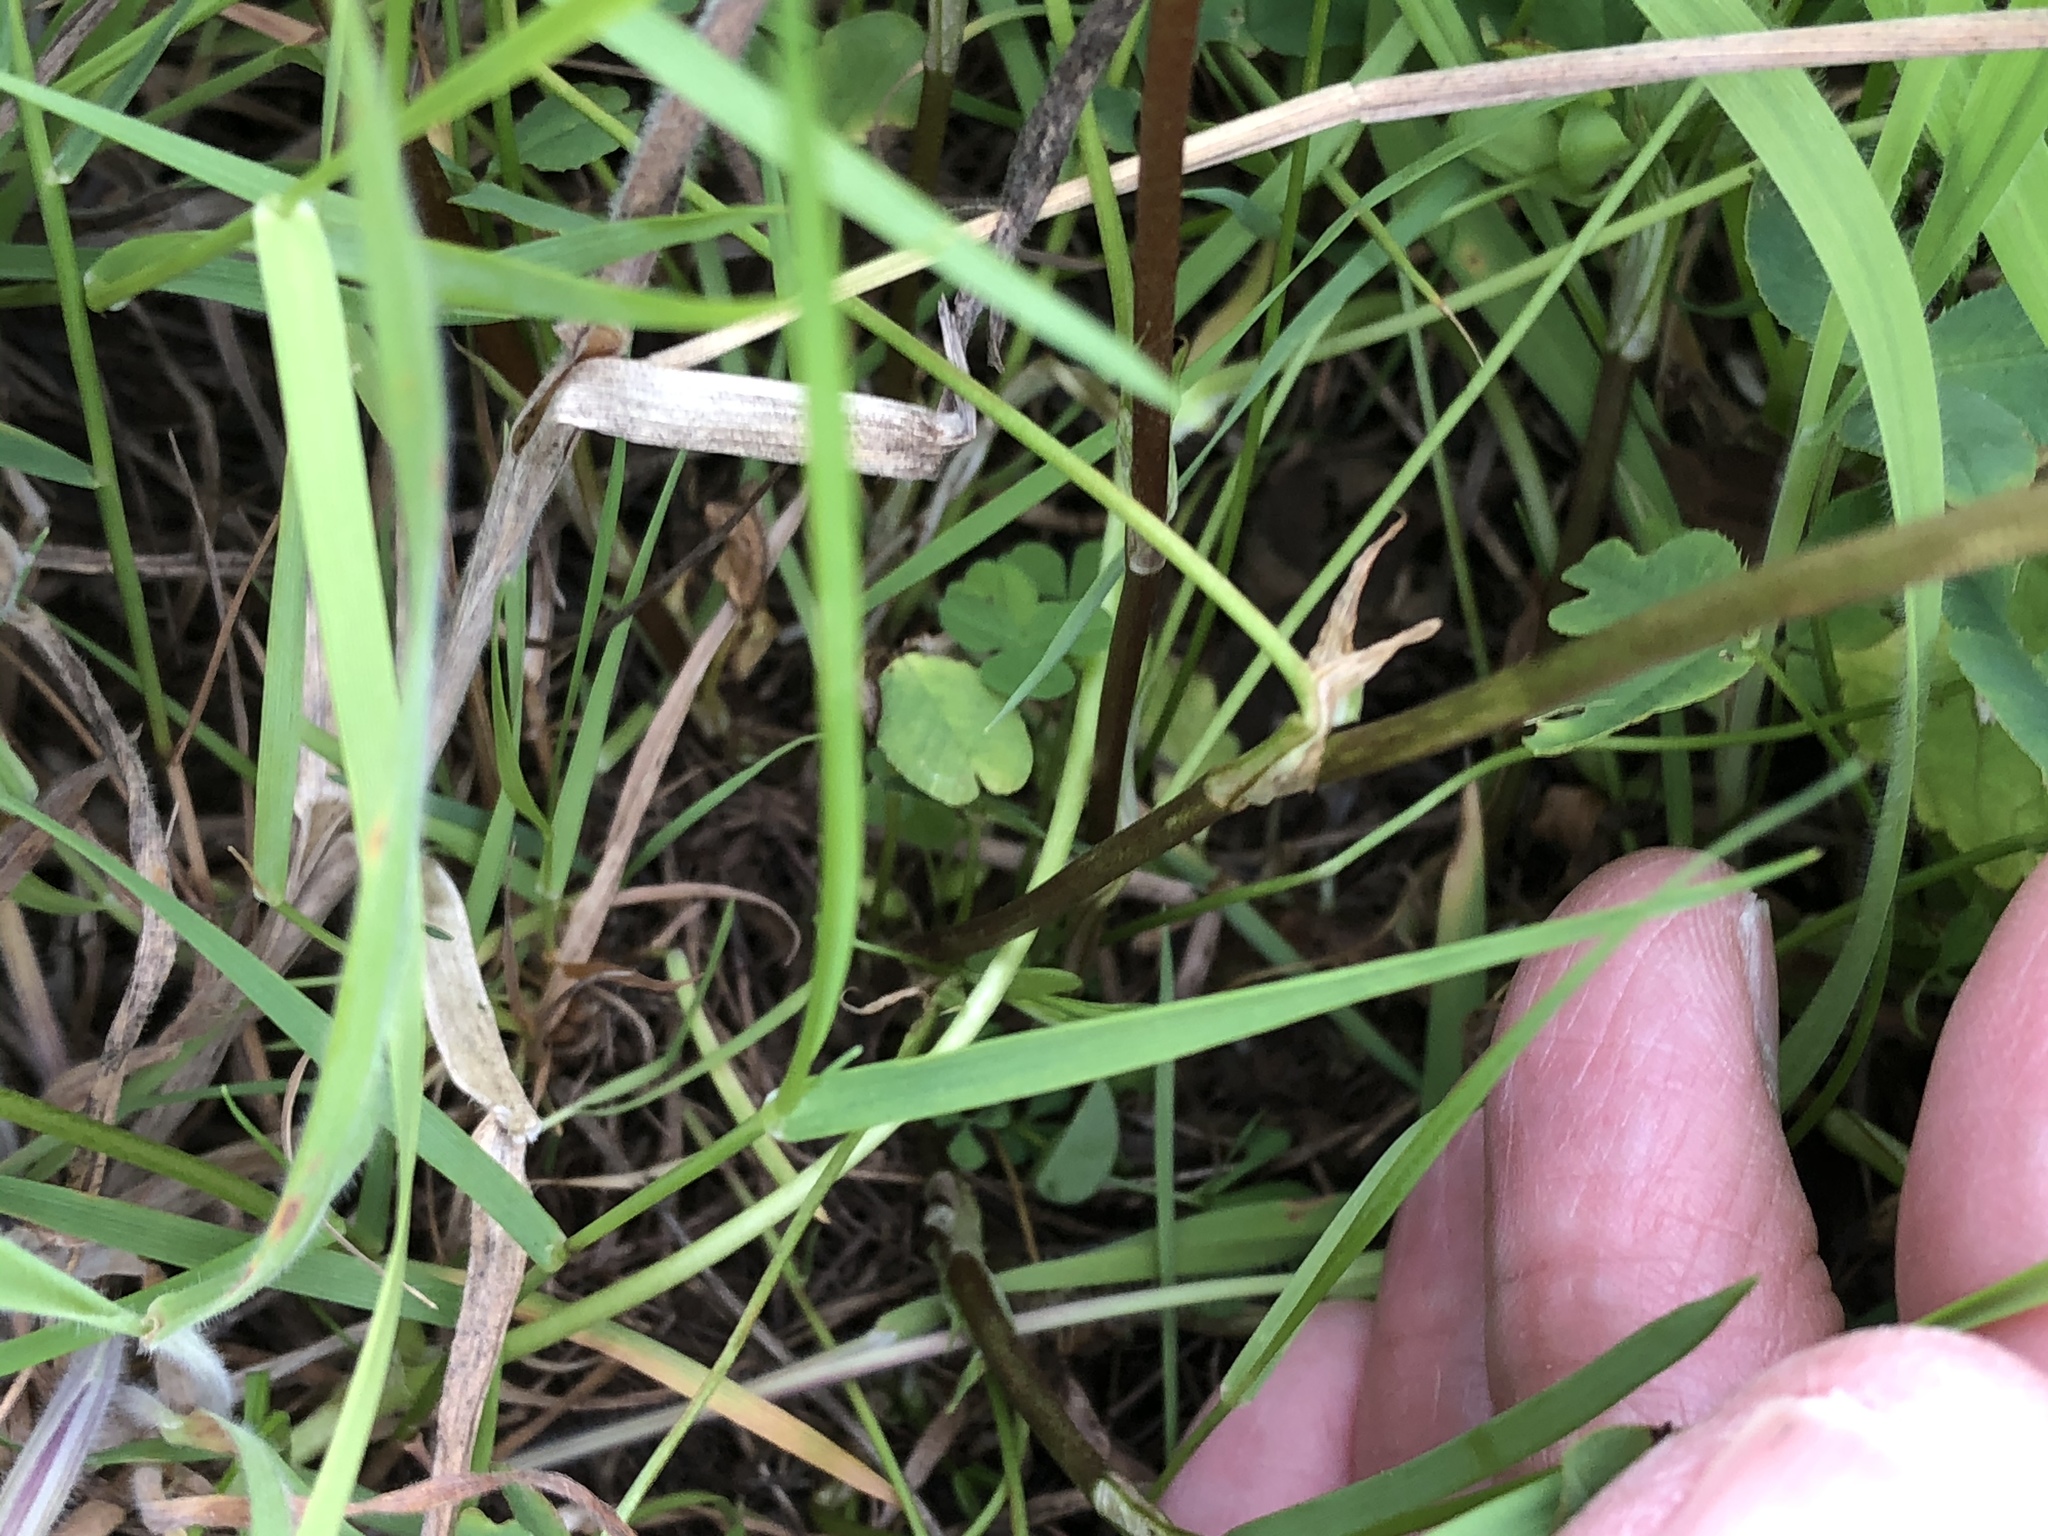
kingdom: Plantae
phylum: Tracheophyta
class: Magnoliopsida
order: Fabales
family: Fabaceae
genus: Trifolium
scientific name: Trifolium hybridum
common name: Alsike clover
